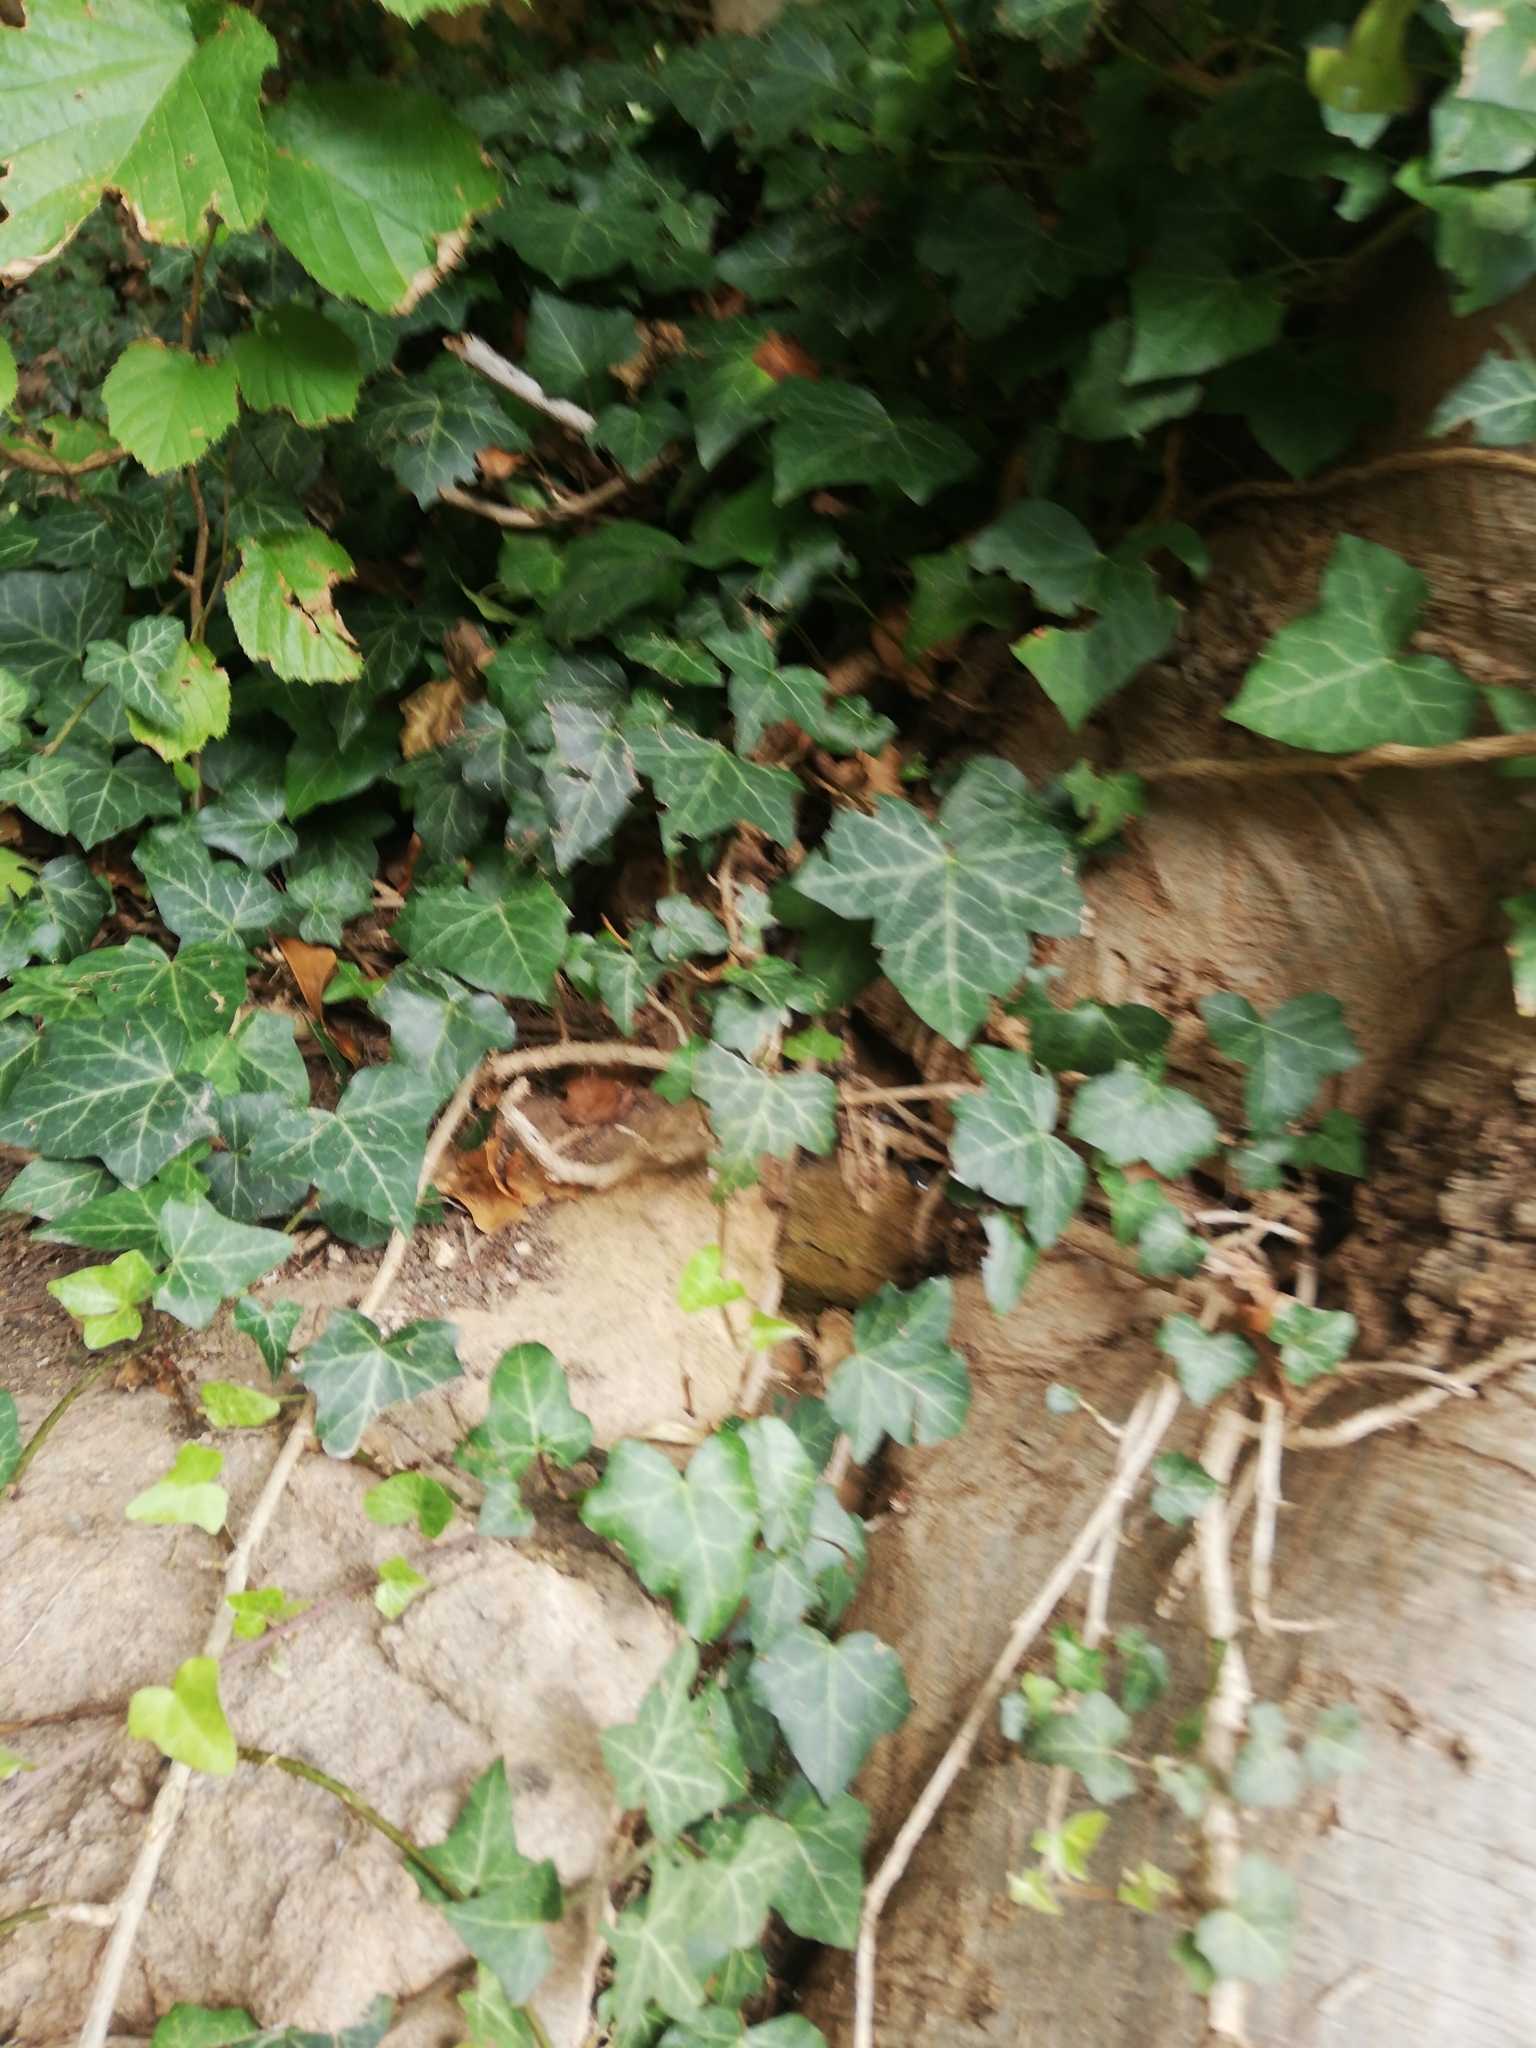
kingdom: Plantae
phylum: Tracheophyta
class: Magnoliopsida
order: Apiales
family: Araliaceae
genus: Hedera
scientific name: Hedera helix
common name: Ivy
